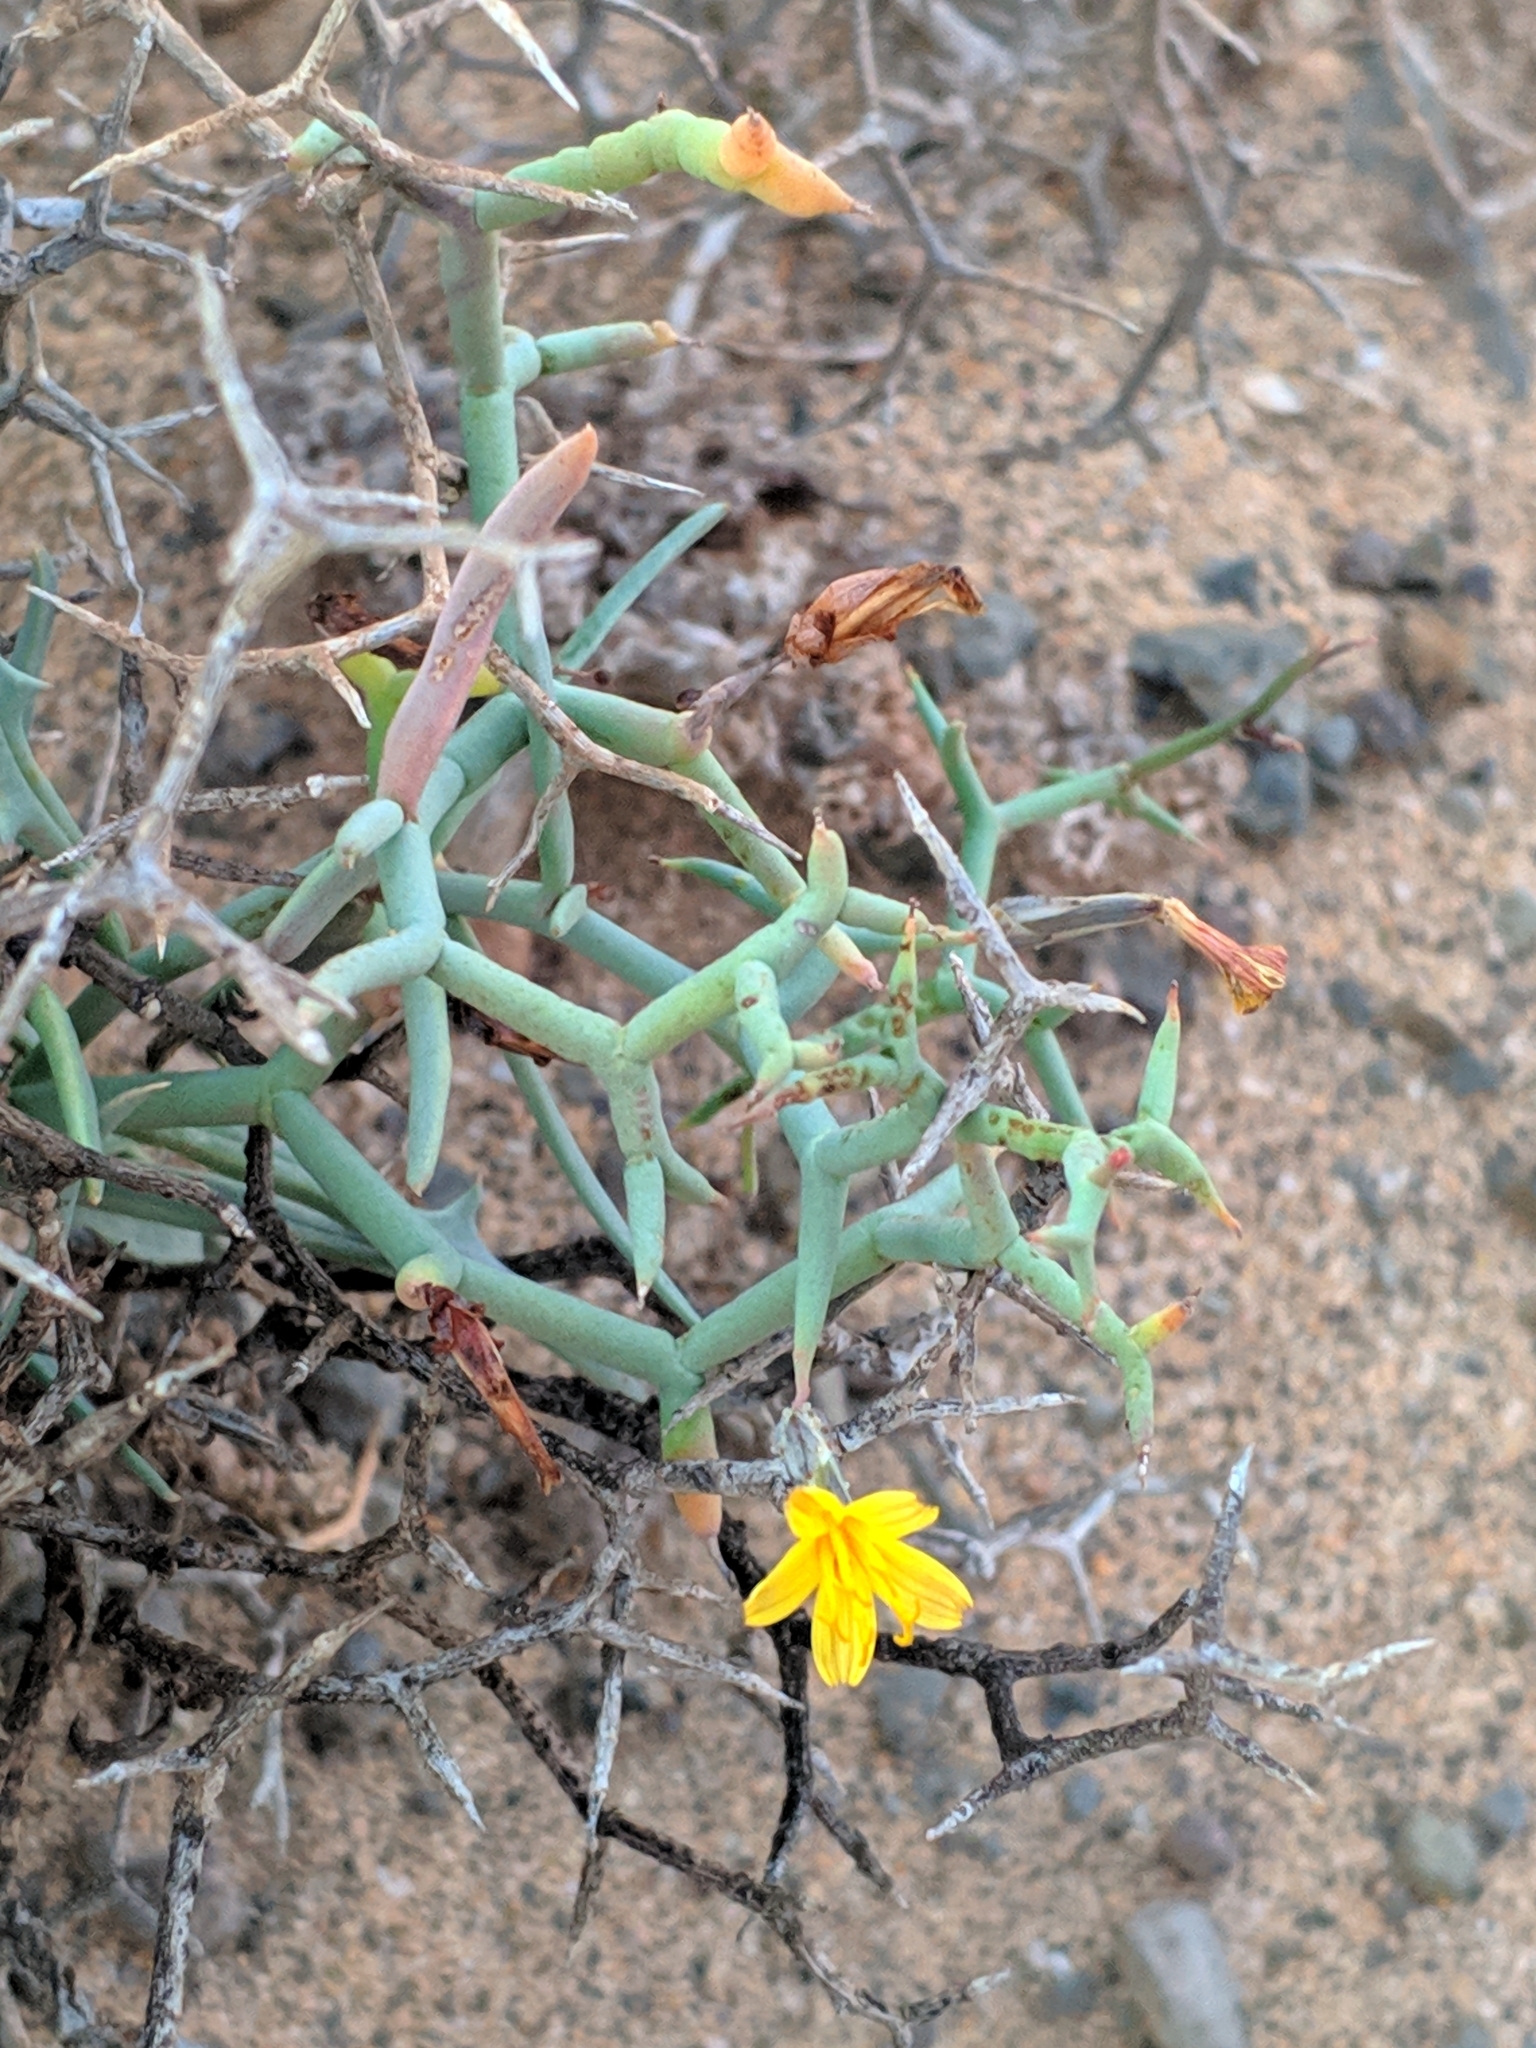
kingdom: Plantae
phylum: Tracheophyta
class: Magnoliopsida
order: Asterales
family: Asteraceae
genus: Launaea
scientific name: Launaea arborescens
